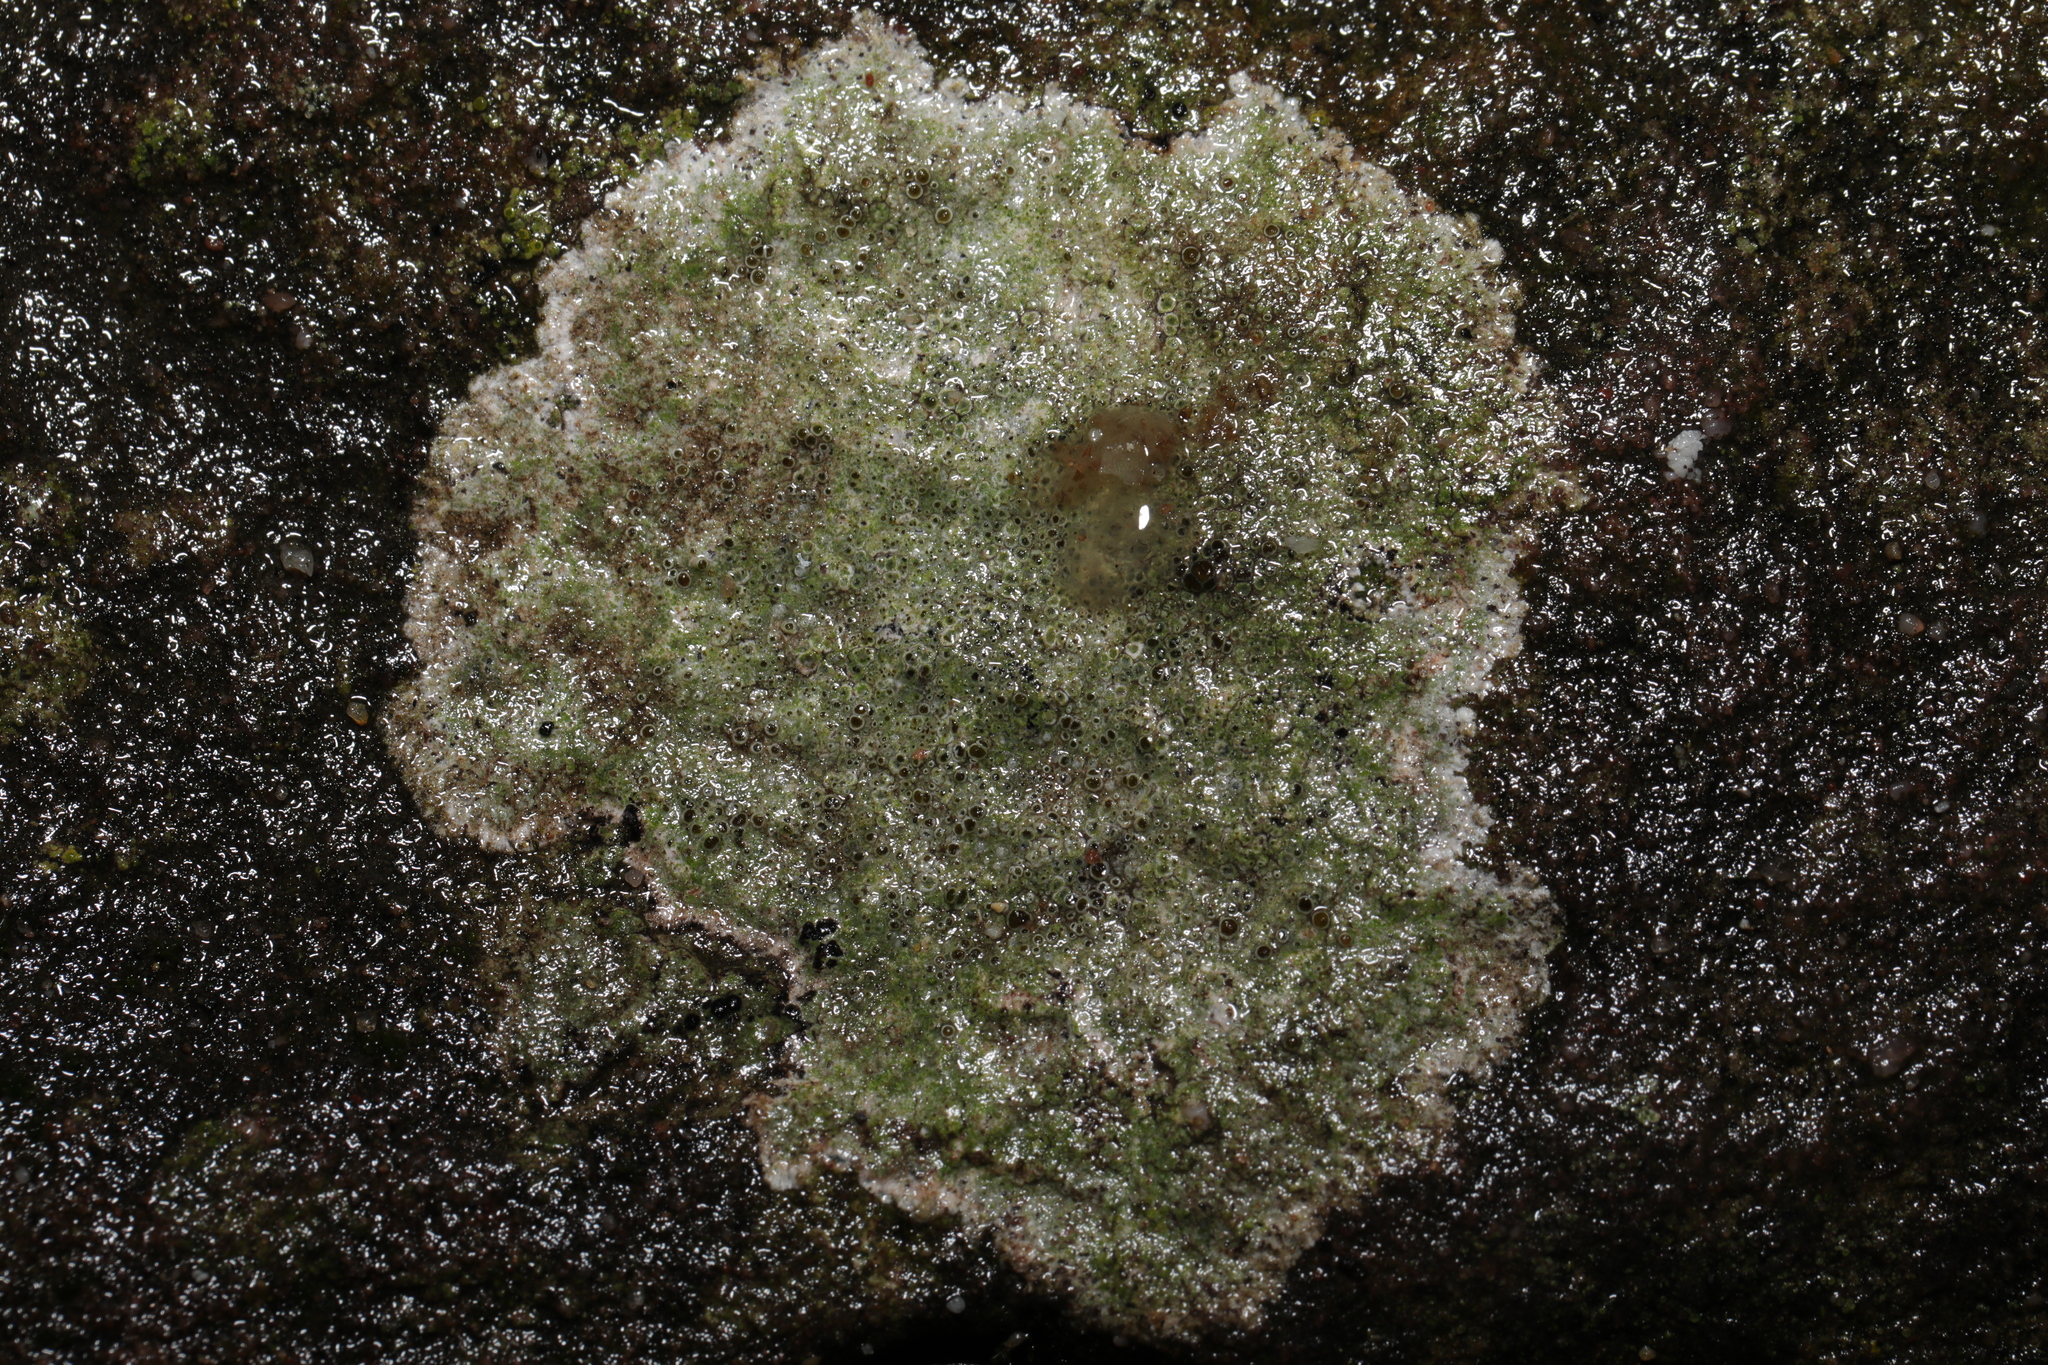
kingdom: Fungi
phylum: Ascomycota
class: Lecanoromycetes
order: Lecanorales
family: Lecanoraceae
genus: Lecanora
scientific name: Lecanora campestris
